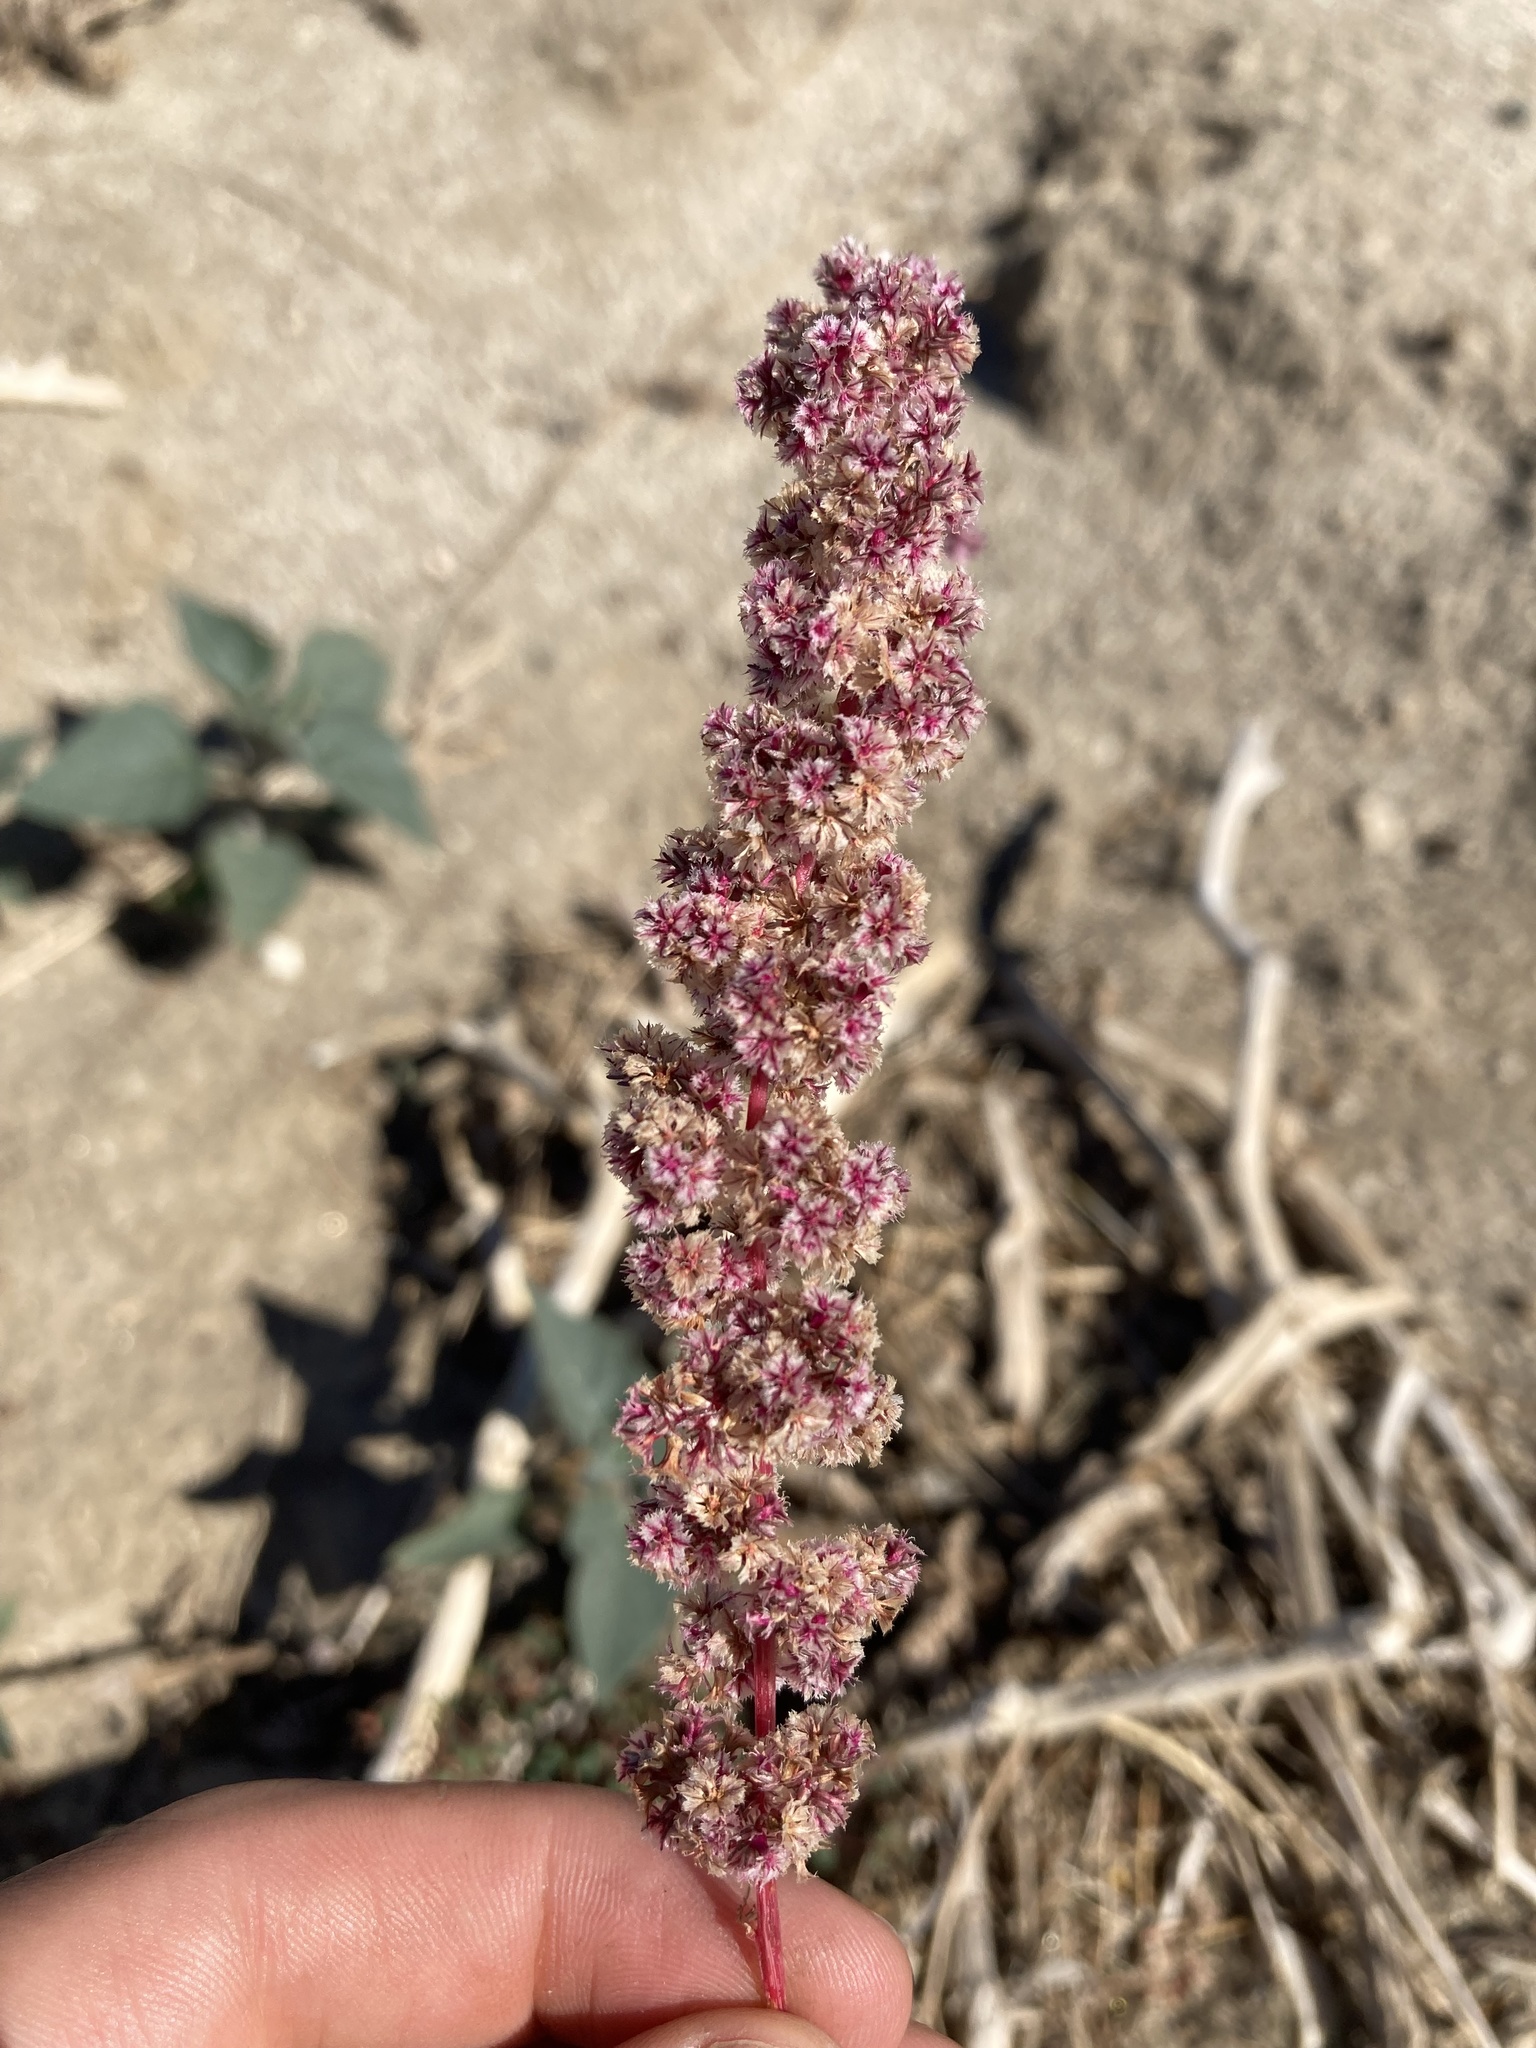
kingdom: Plantae
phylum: Tracheophyta
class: Magnoliopsida
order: Caryophyllales
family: Amaranthaceae
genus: Amaranthus
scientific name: Amaranthus fimbriatus
